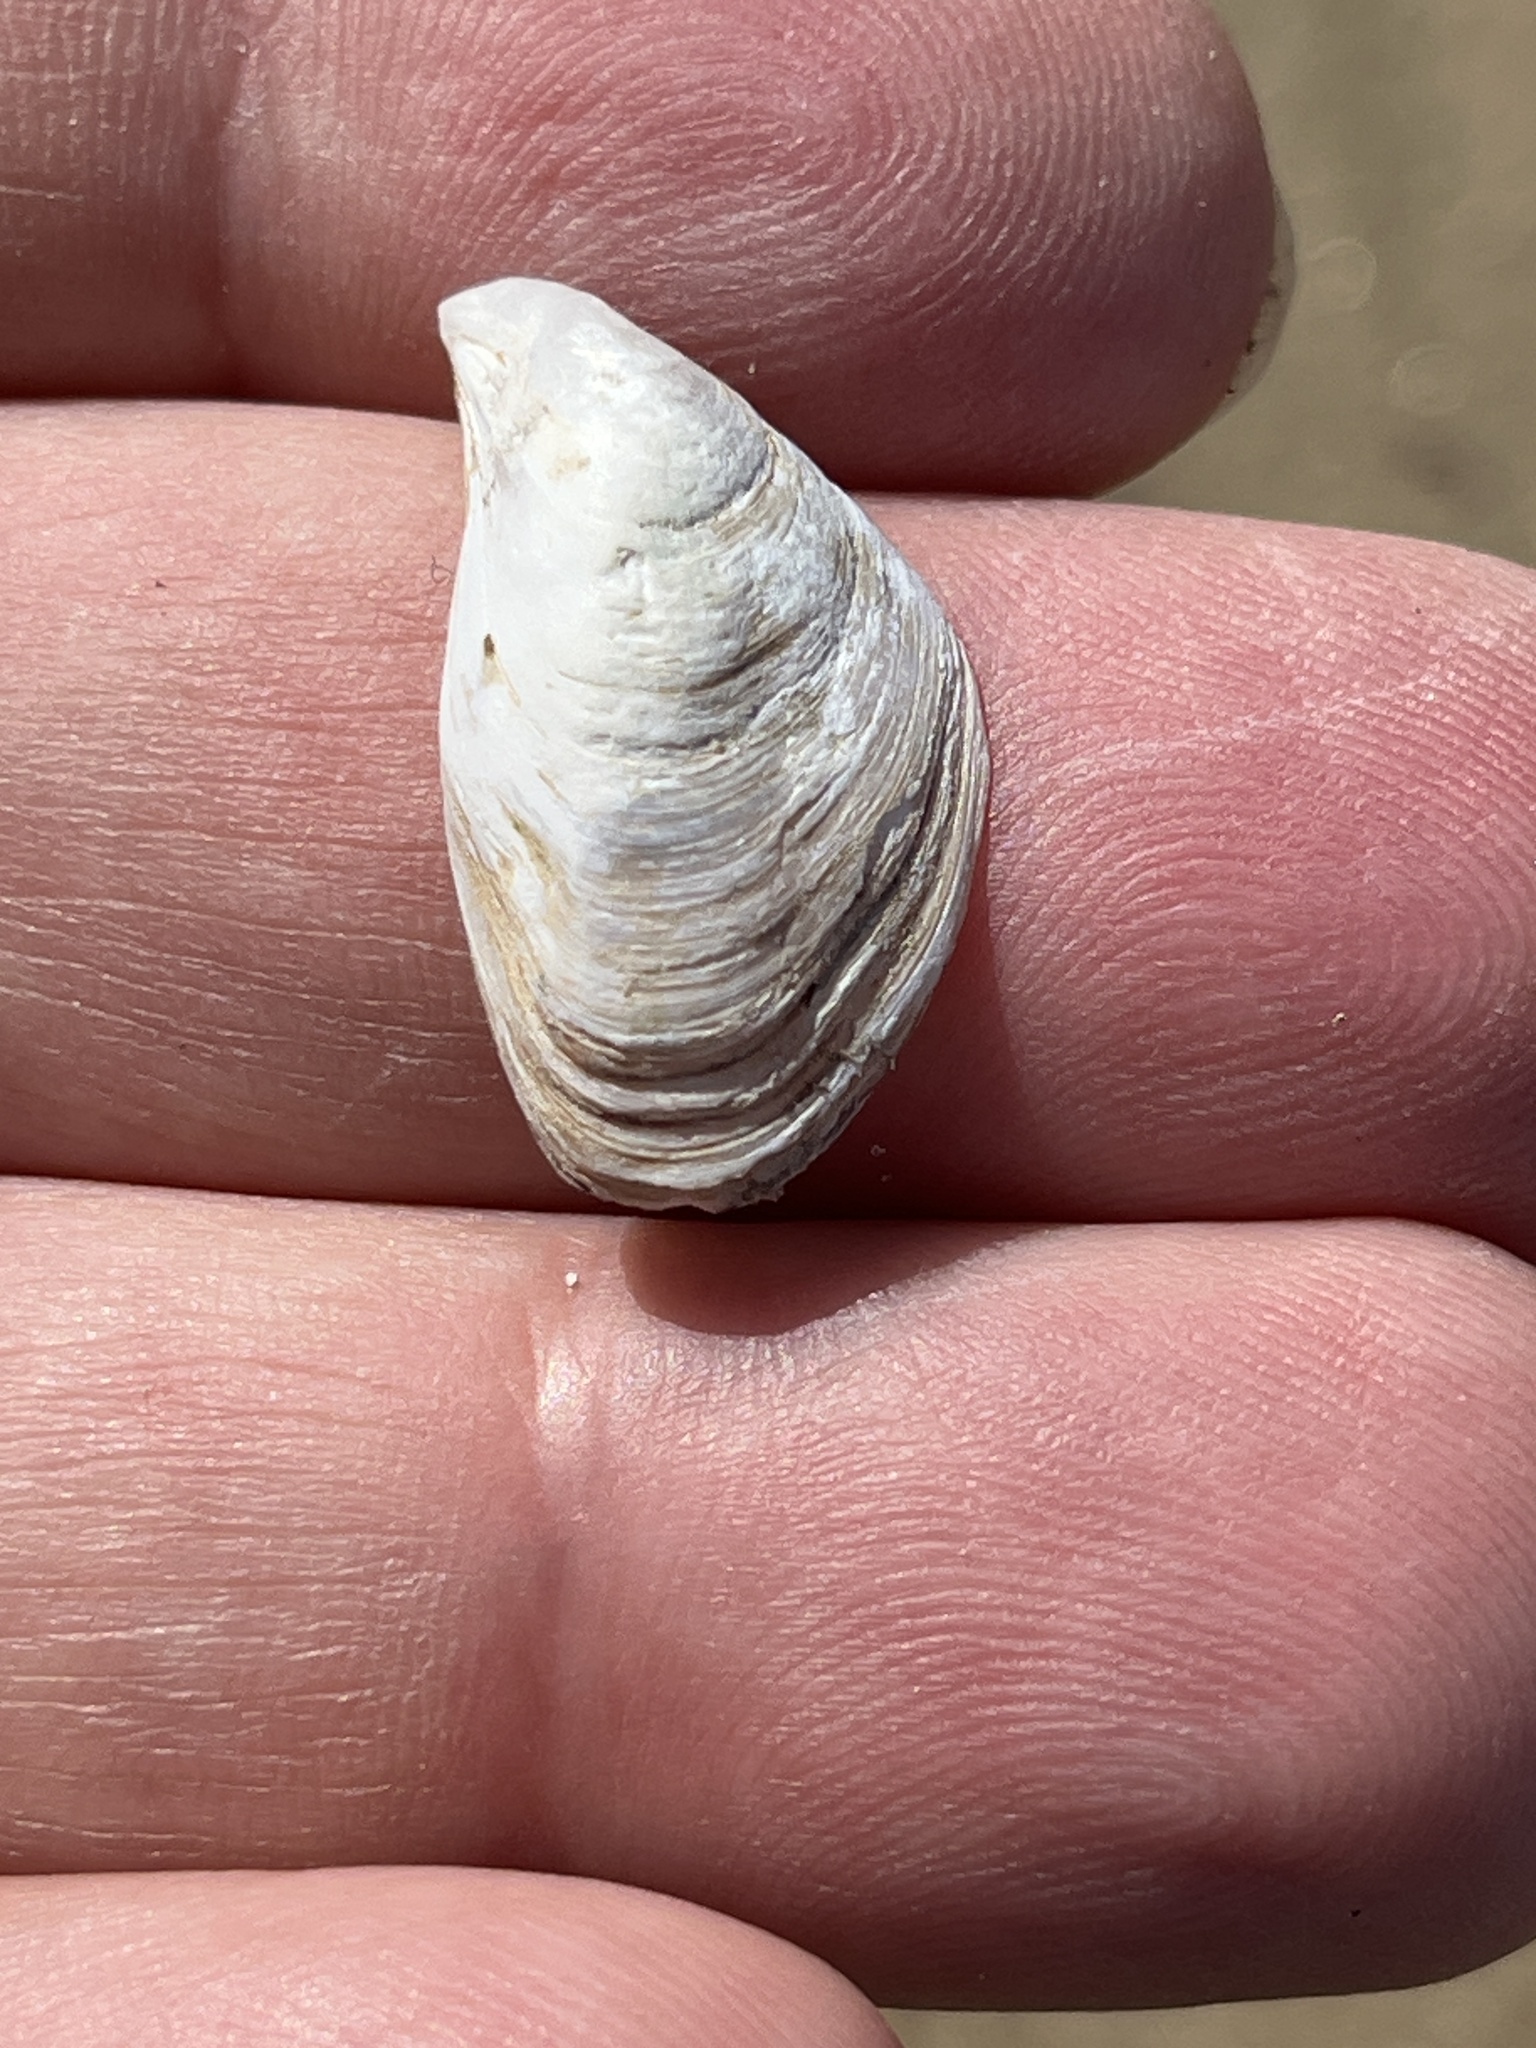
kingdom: Animalia
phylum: Mollusca
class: Bivalvia
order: Myida
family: Dreissenidae
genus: Dreissena
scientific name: Dreissena bugensis
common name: Quagga mussel
